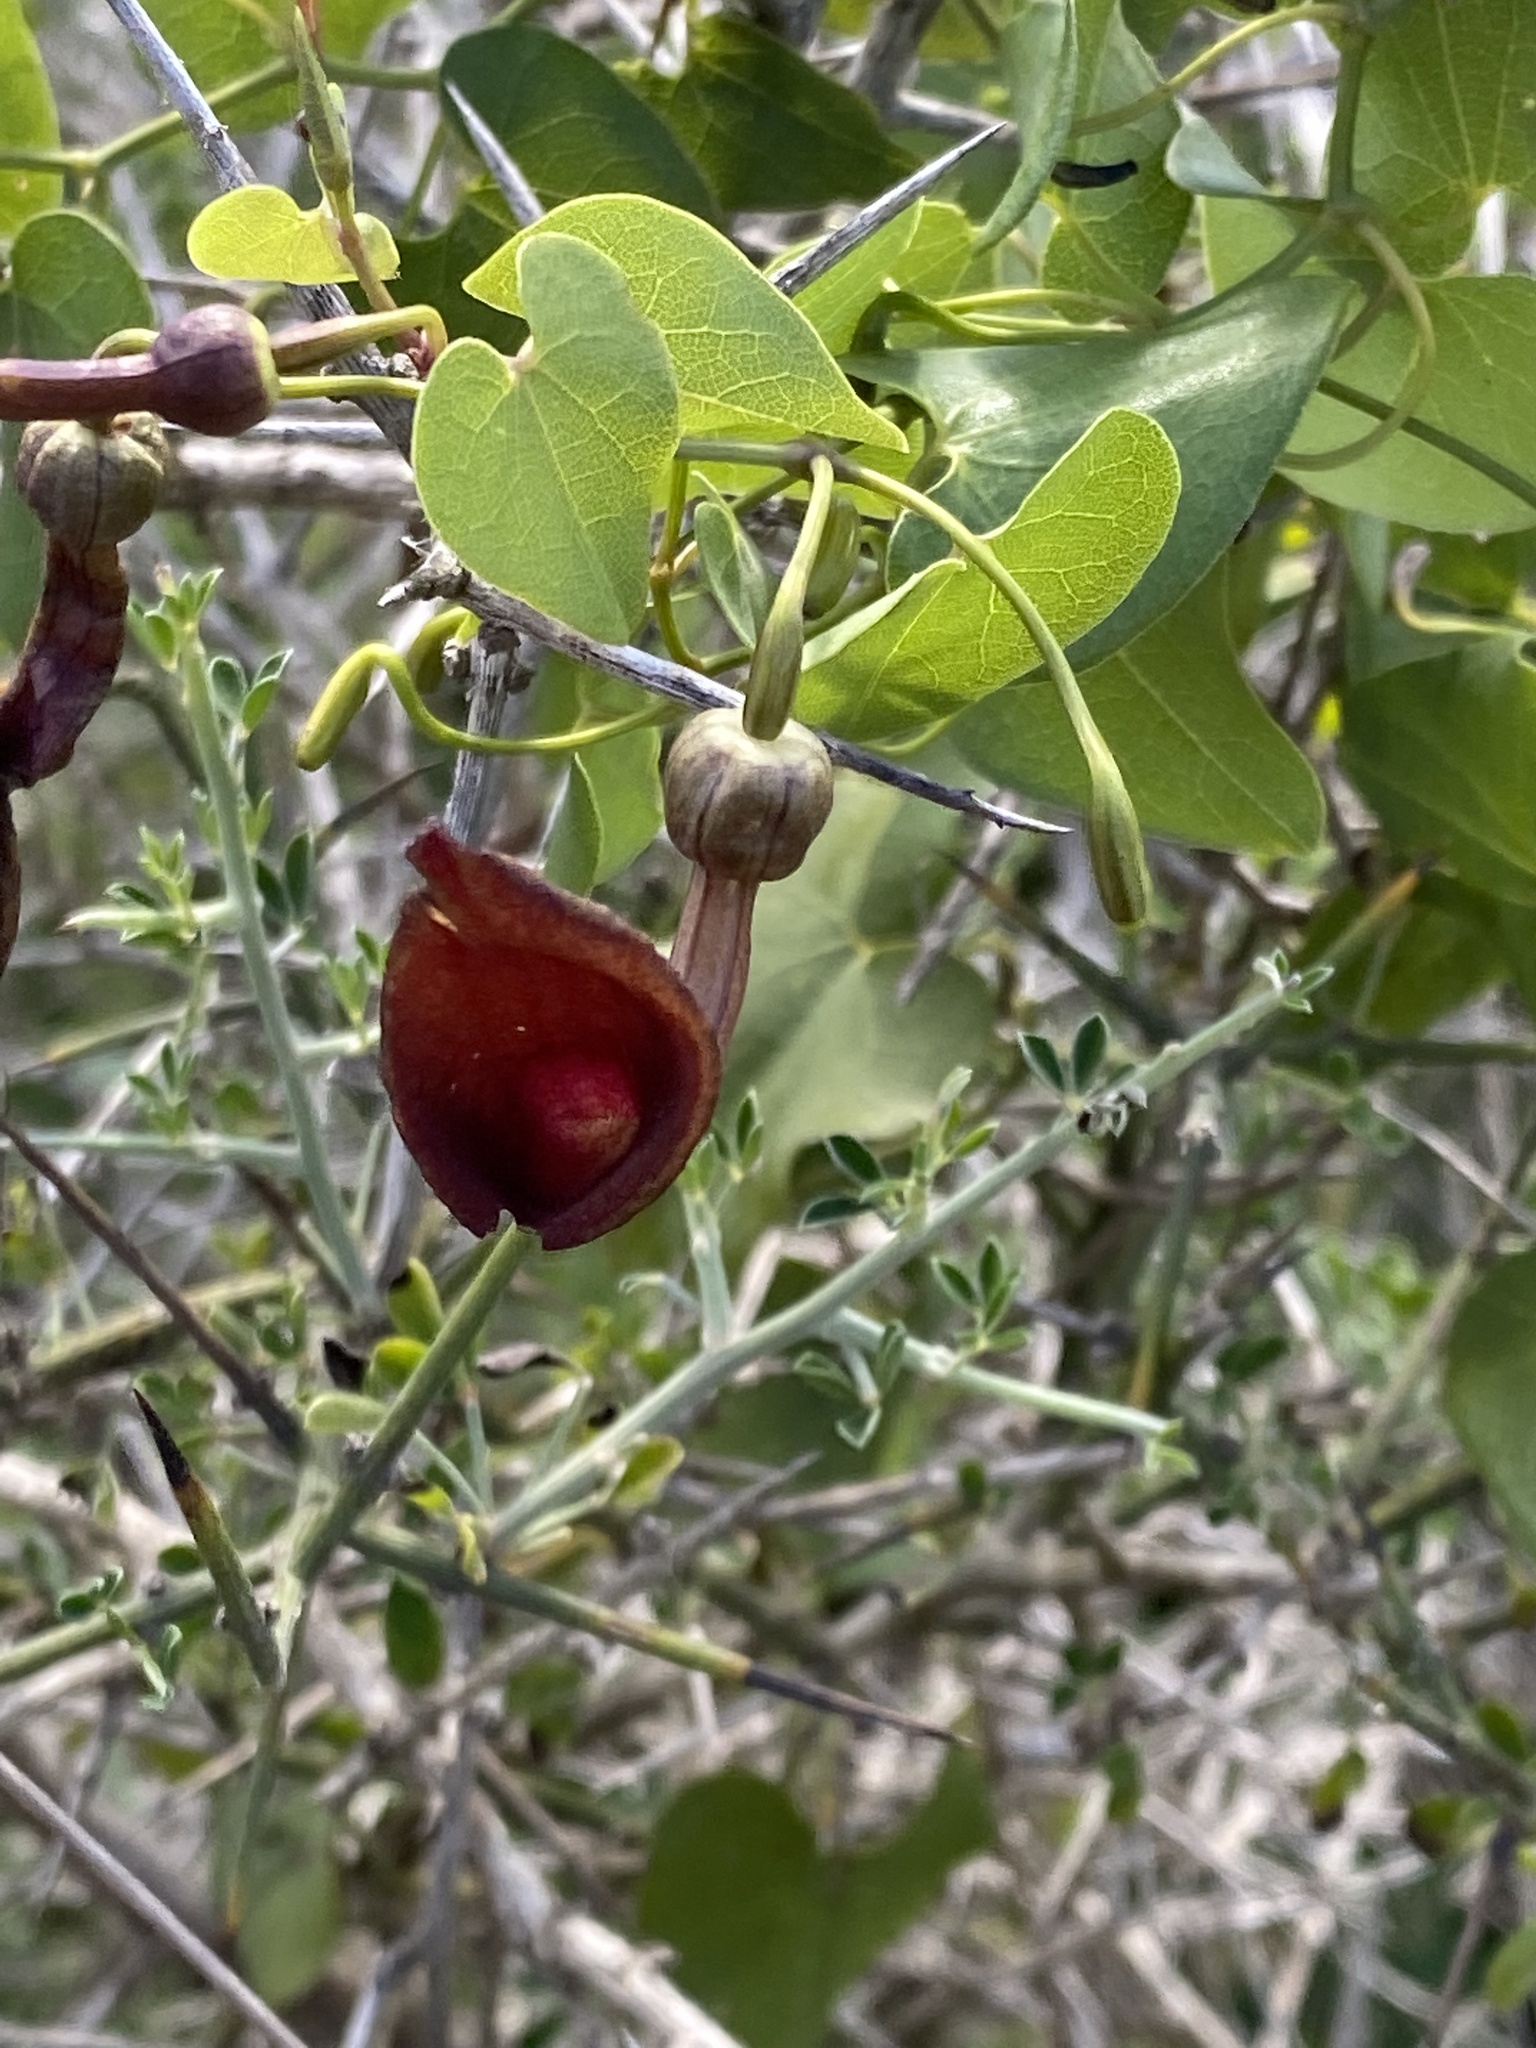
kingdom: Plantae
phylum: Tracheophyta
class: Magnoliopsida
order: Piperales
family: Aristolochiaceae
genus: Aristolochia
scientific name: Aristolochia baetica
